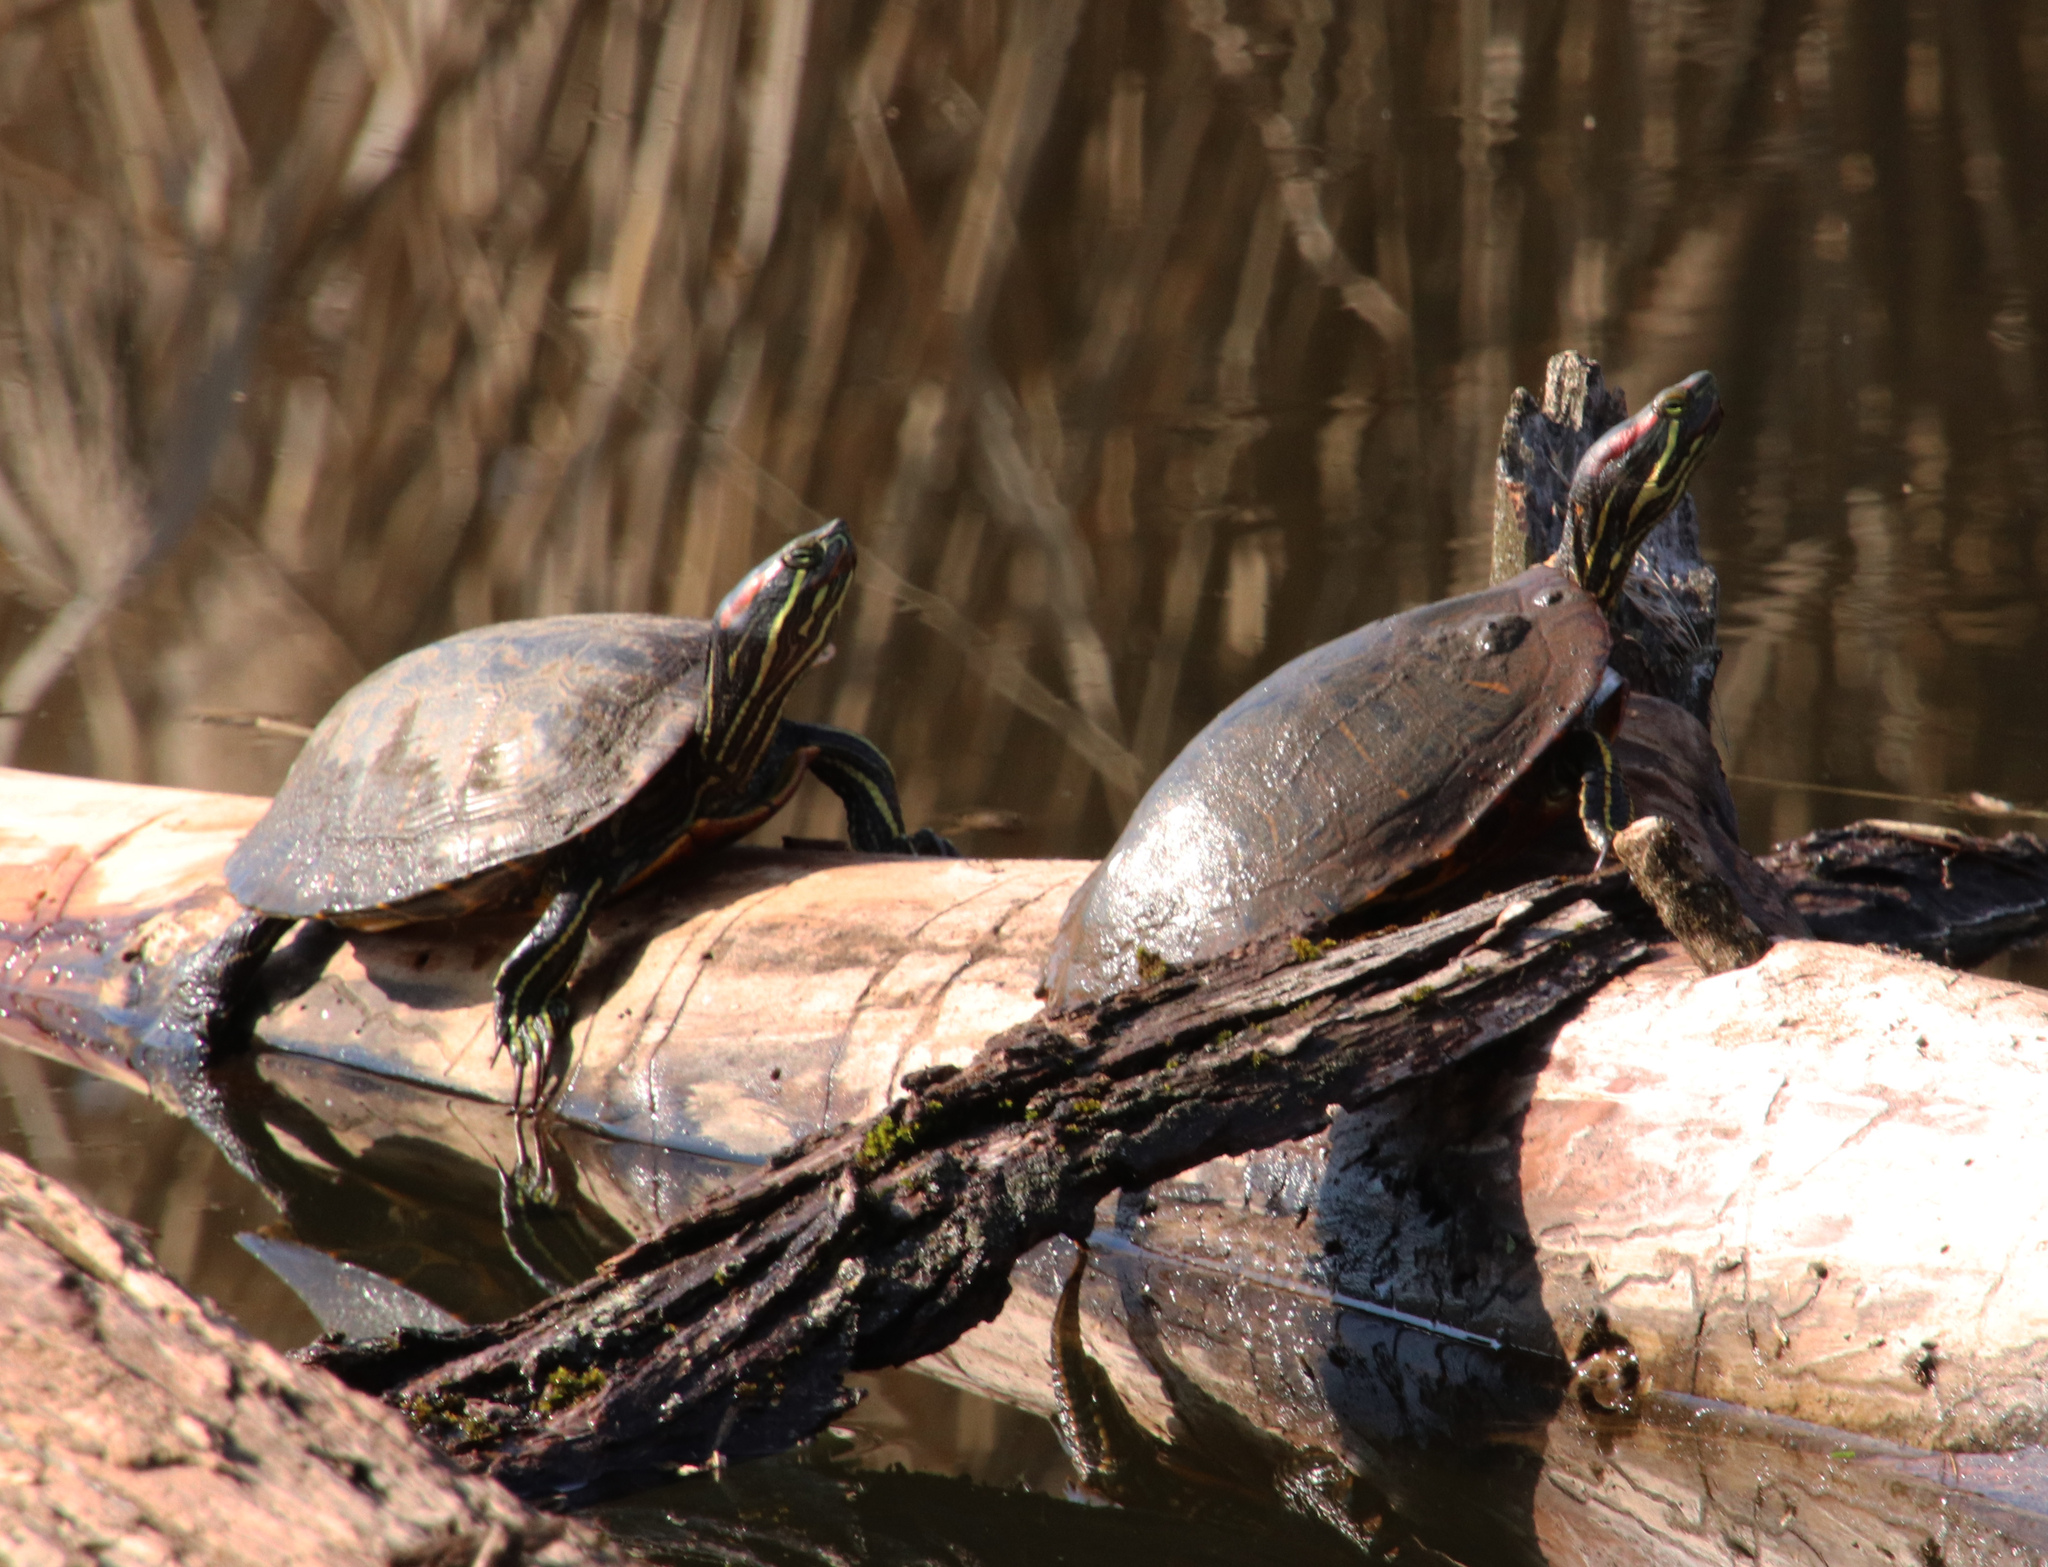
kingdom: Animalia
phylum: Chordata
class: Testudines
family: Emydidae
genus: Trachemys
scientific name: Trachemys scripta
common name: Slider
